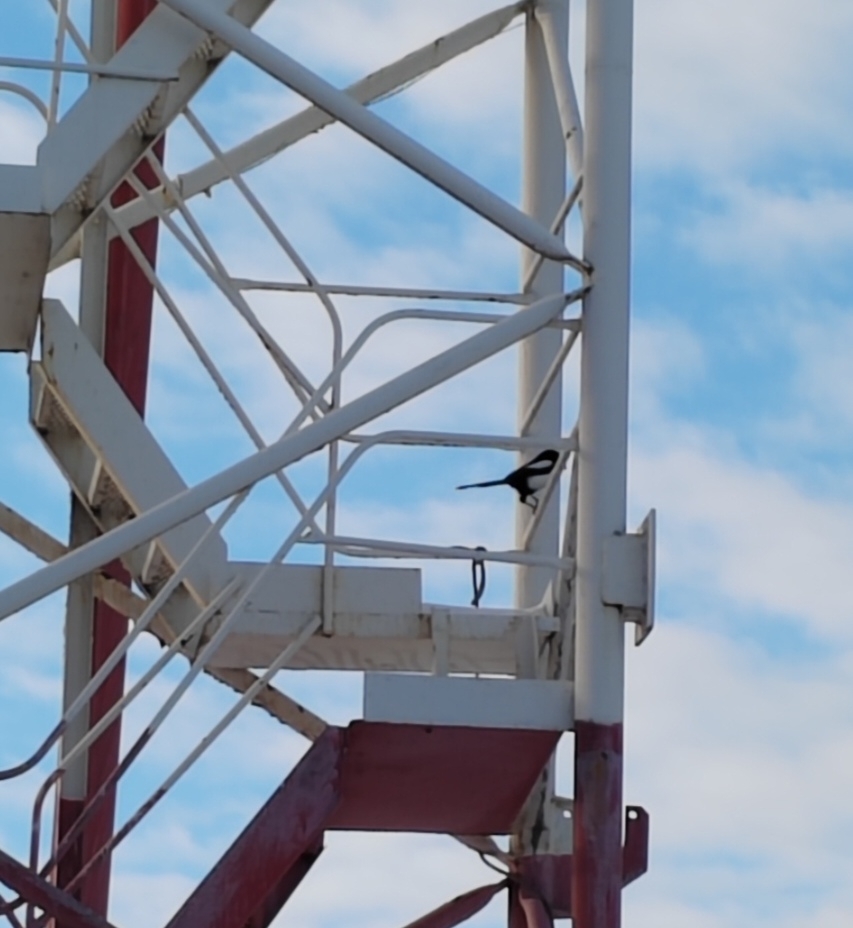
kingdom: Animalia
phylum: Chordata
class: Aves
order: Passeriformes
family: Corvidae
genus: Pica
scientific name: Pica pica
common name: Eurasian magpie
